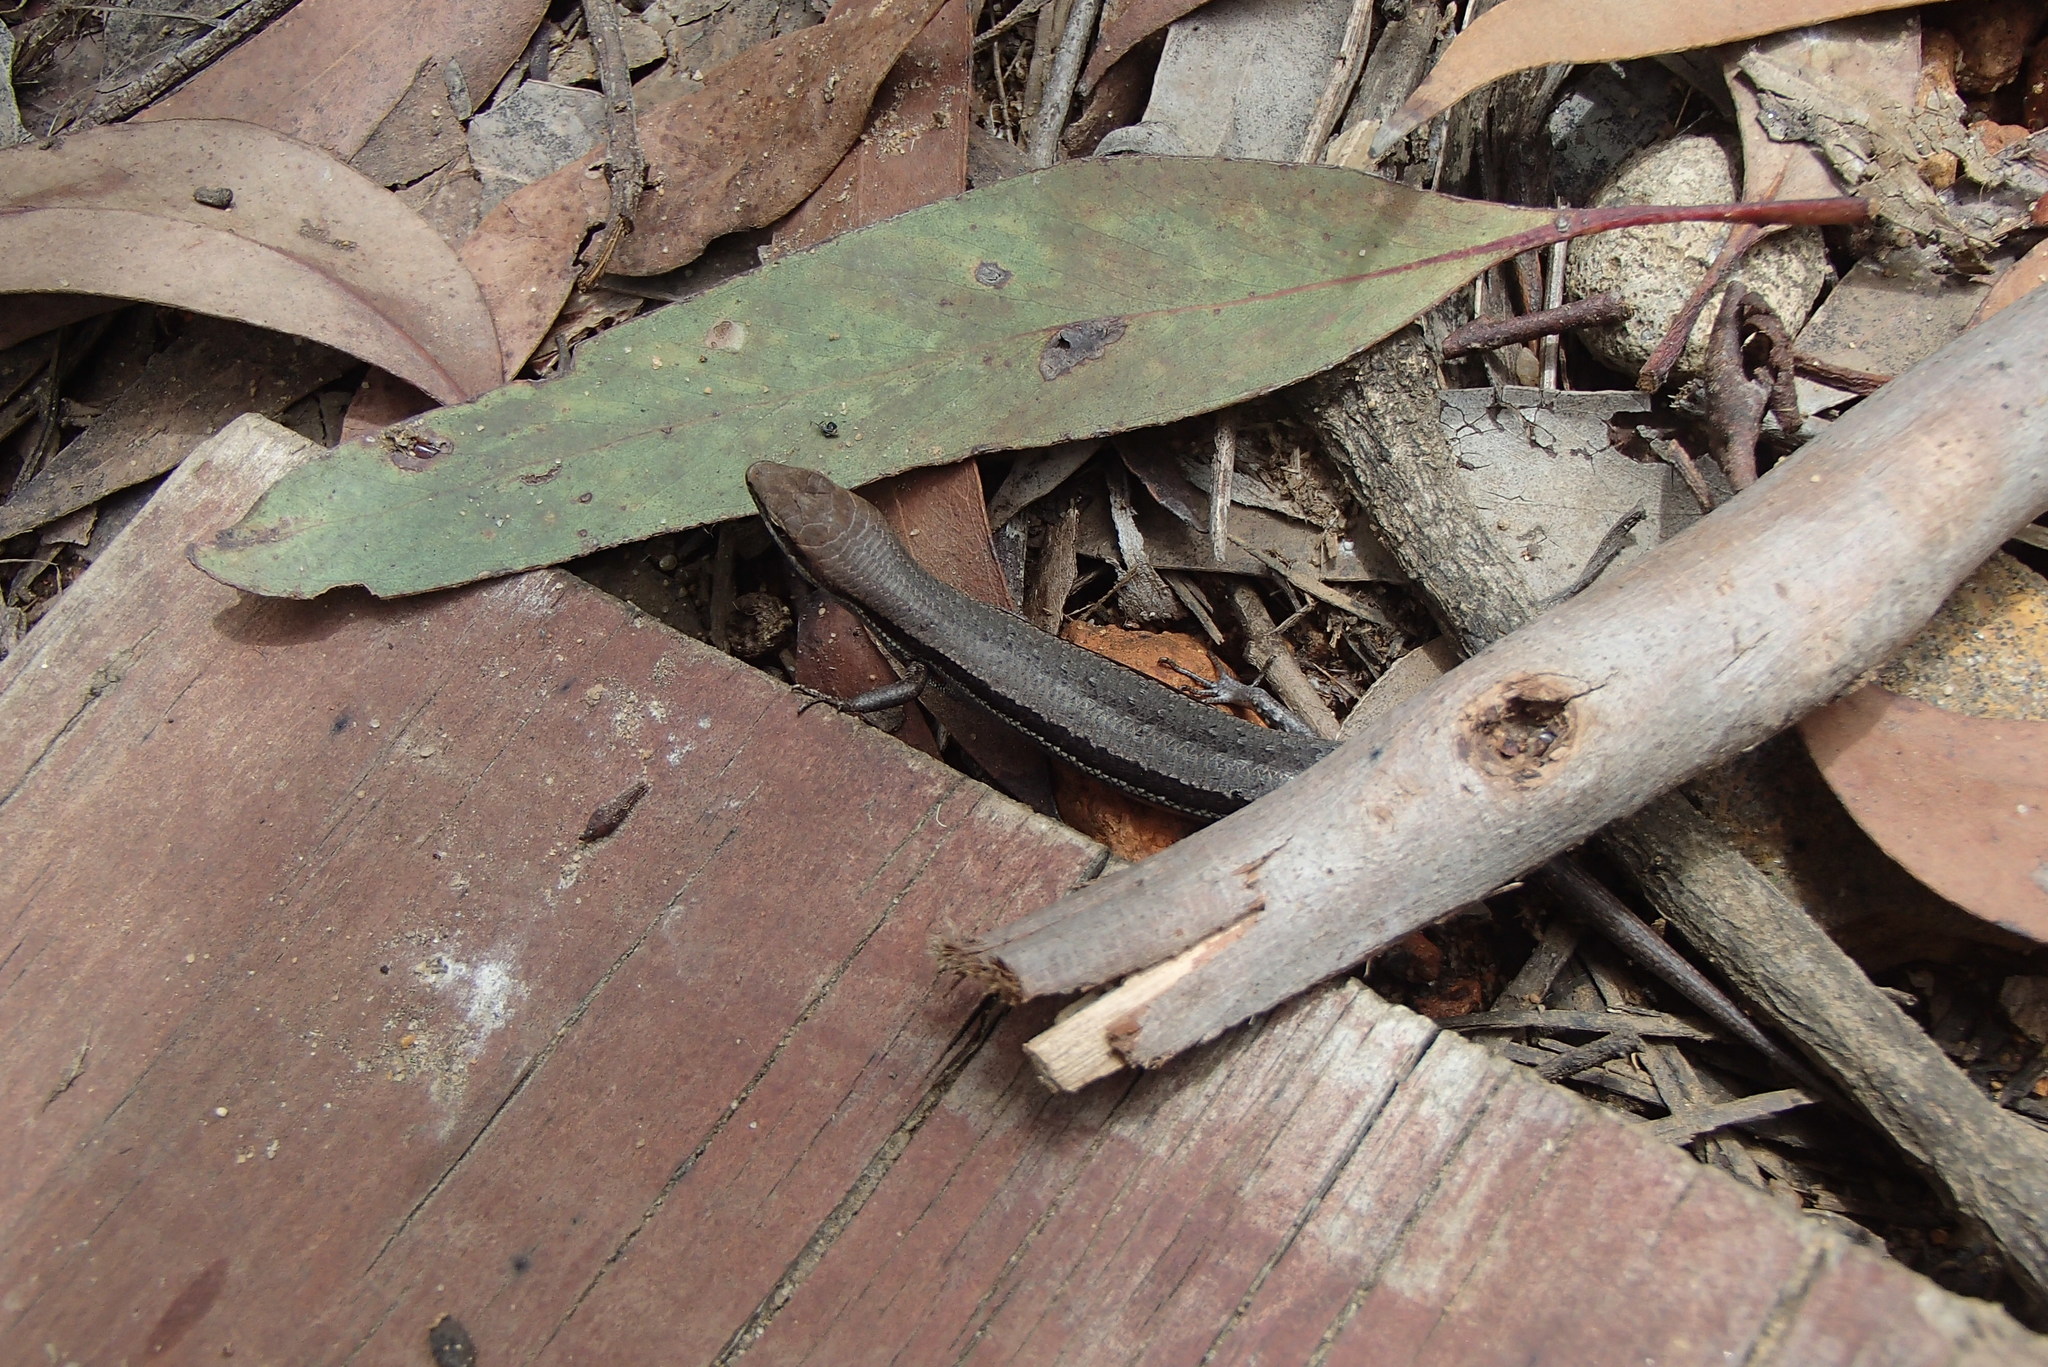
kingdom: Animalia
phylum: Chordata
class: Squamata
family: Scincidae
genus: Lampropholis
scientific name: Lampropholis guichenoti
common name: Garden skink
